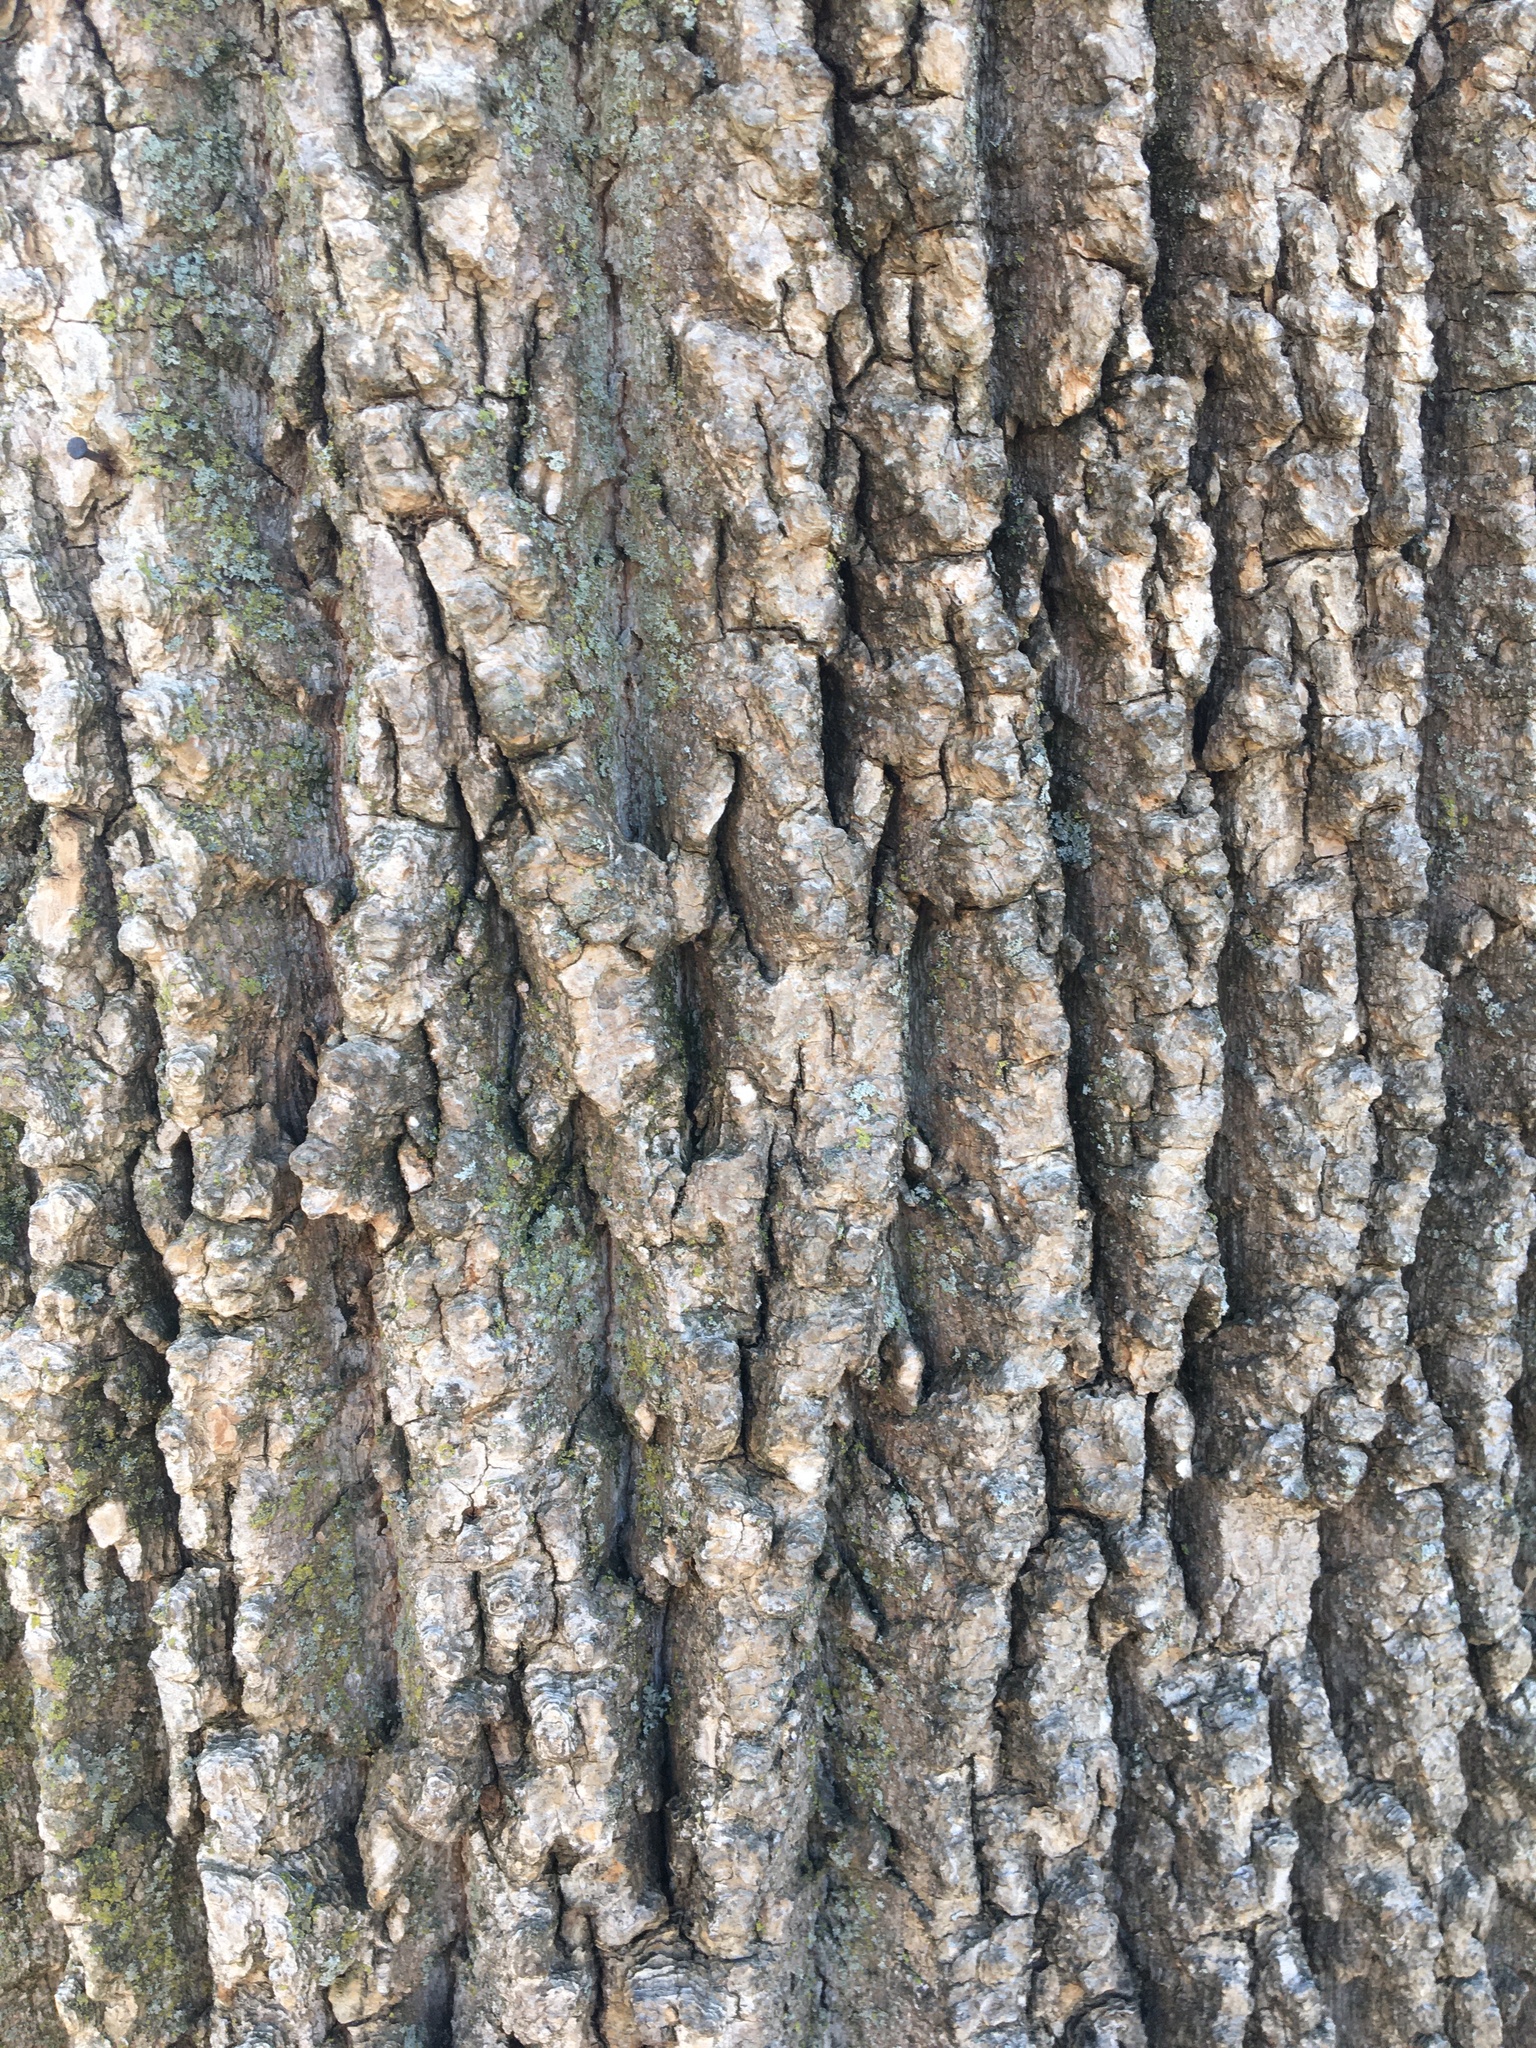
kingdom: Plantae
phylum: Tracheophyta
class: Magnoliopsida
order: Magnoliales
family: Magnoliaceae
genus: Liriodendron
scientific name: Liriodendron tulipifera
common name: Tulip tree
